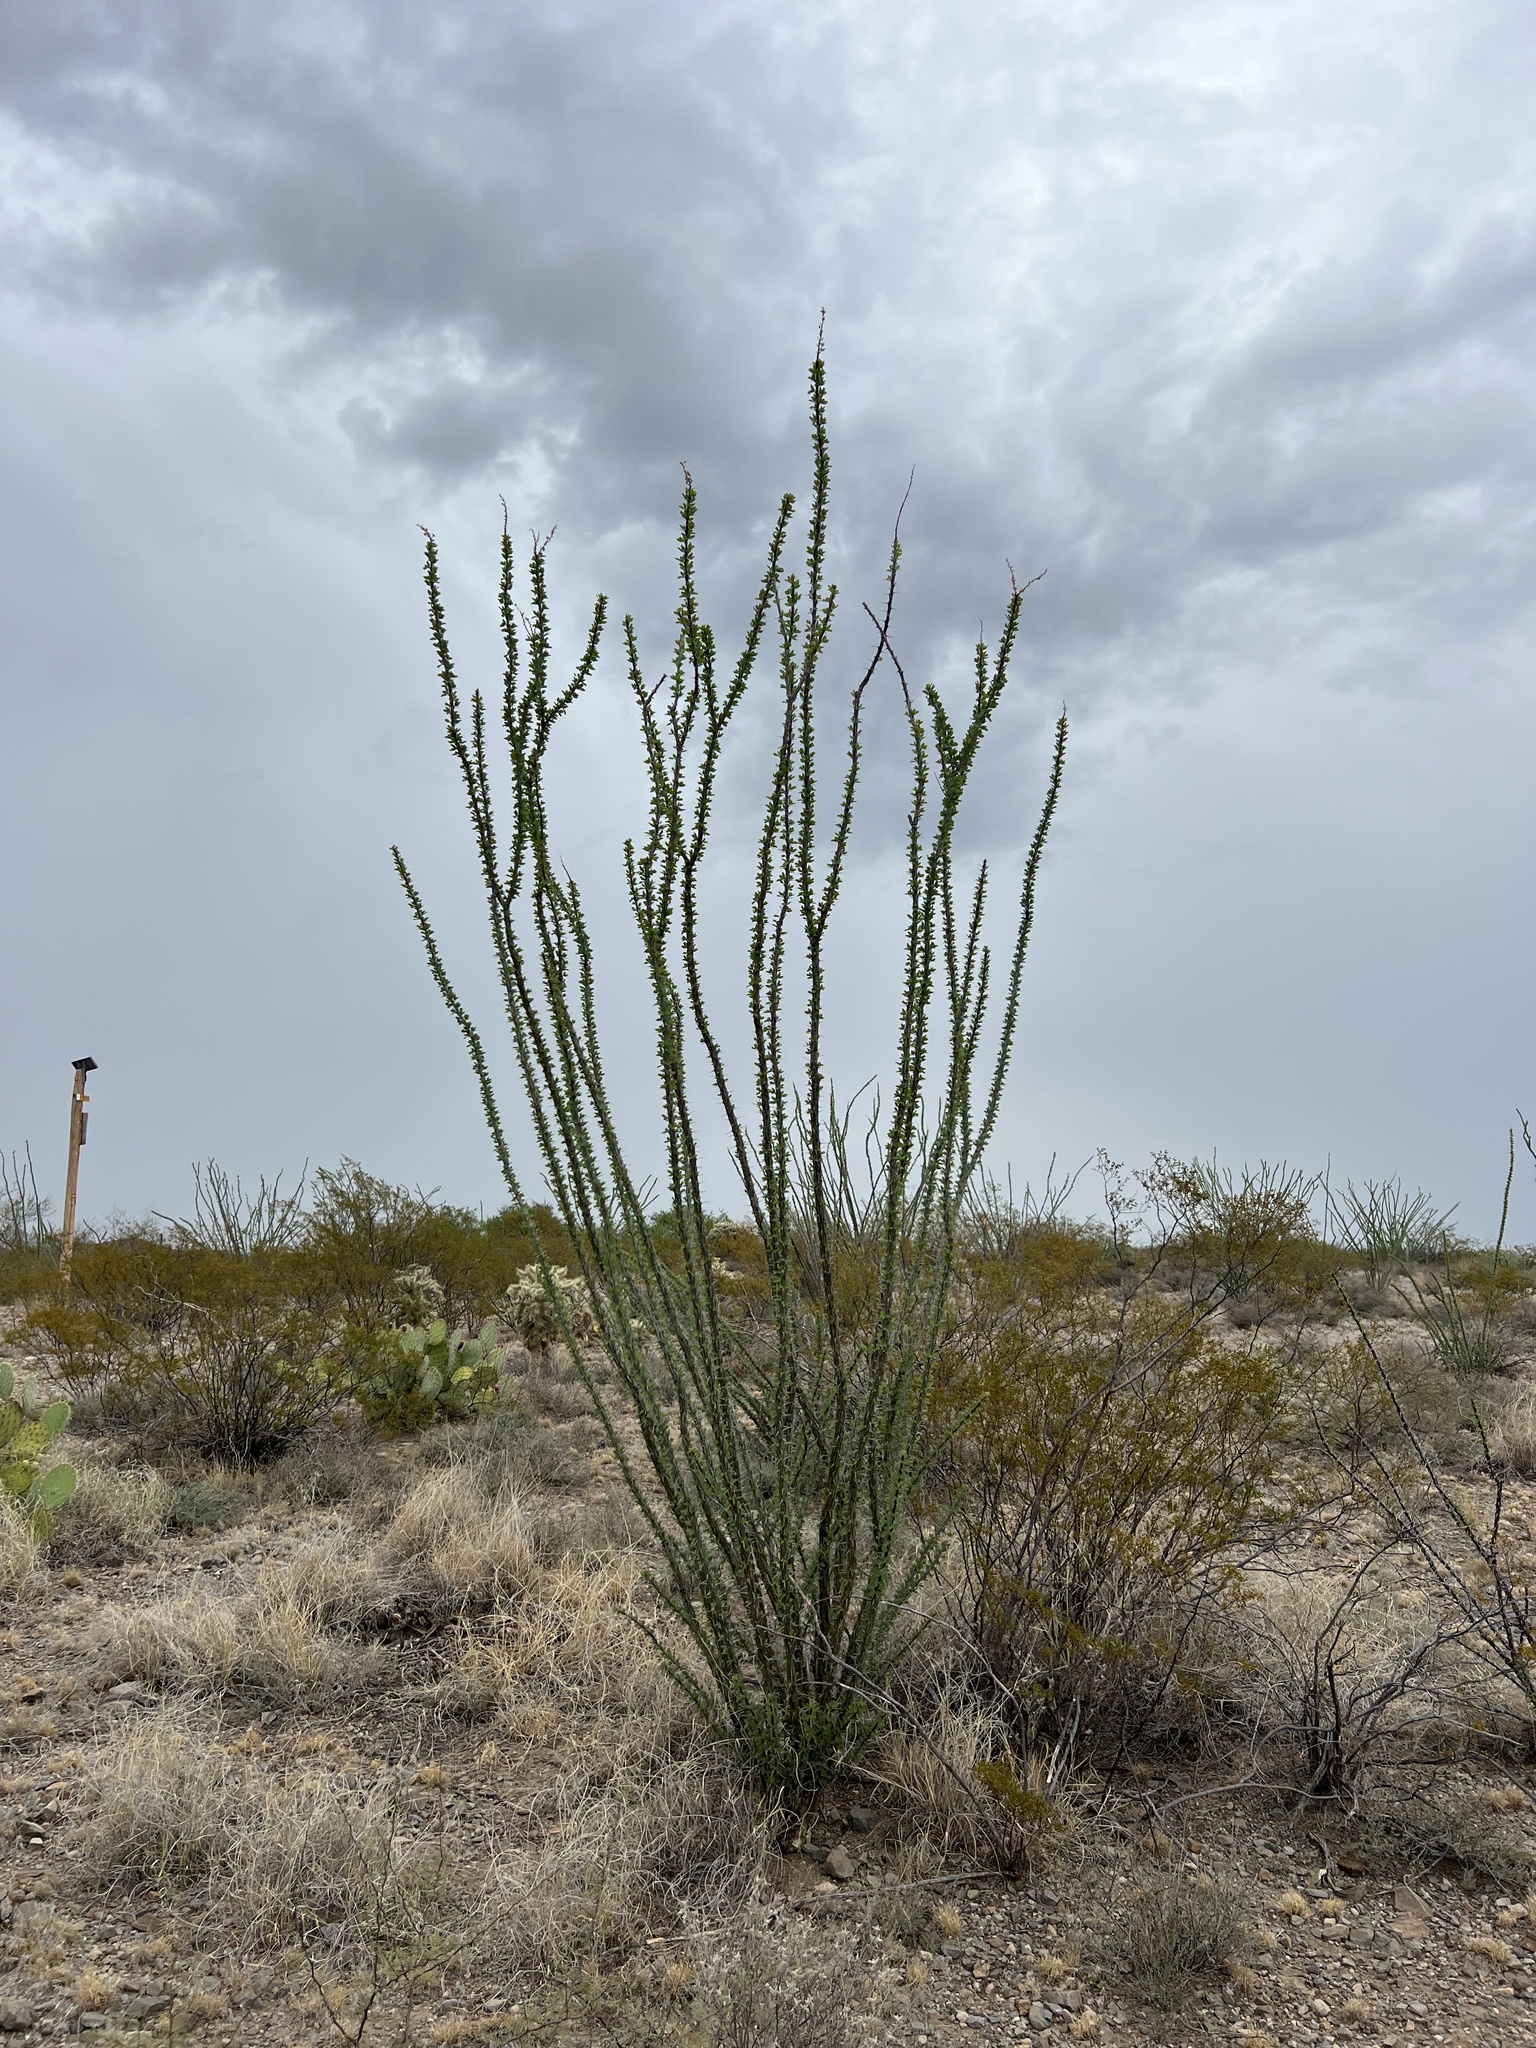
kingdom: Plantae
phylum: Tracheophyta
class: Magnoliopsida
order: Ericales
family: Fouquieriaceae
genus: Fouquieria
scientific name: Fouquieria splendens
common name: Vine-cactus
